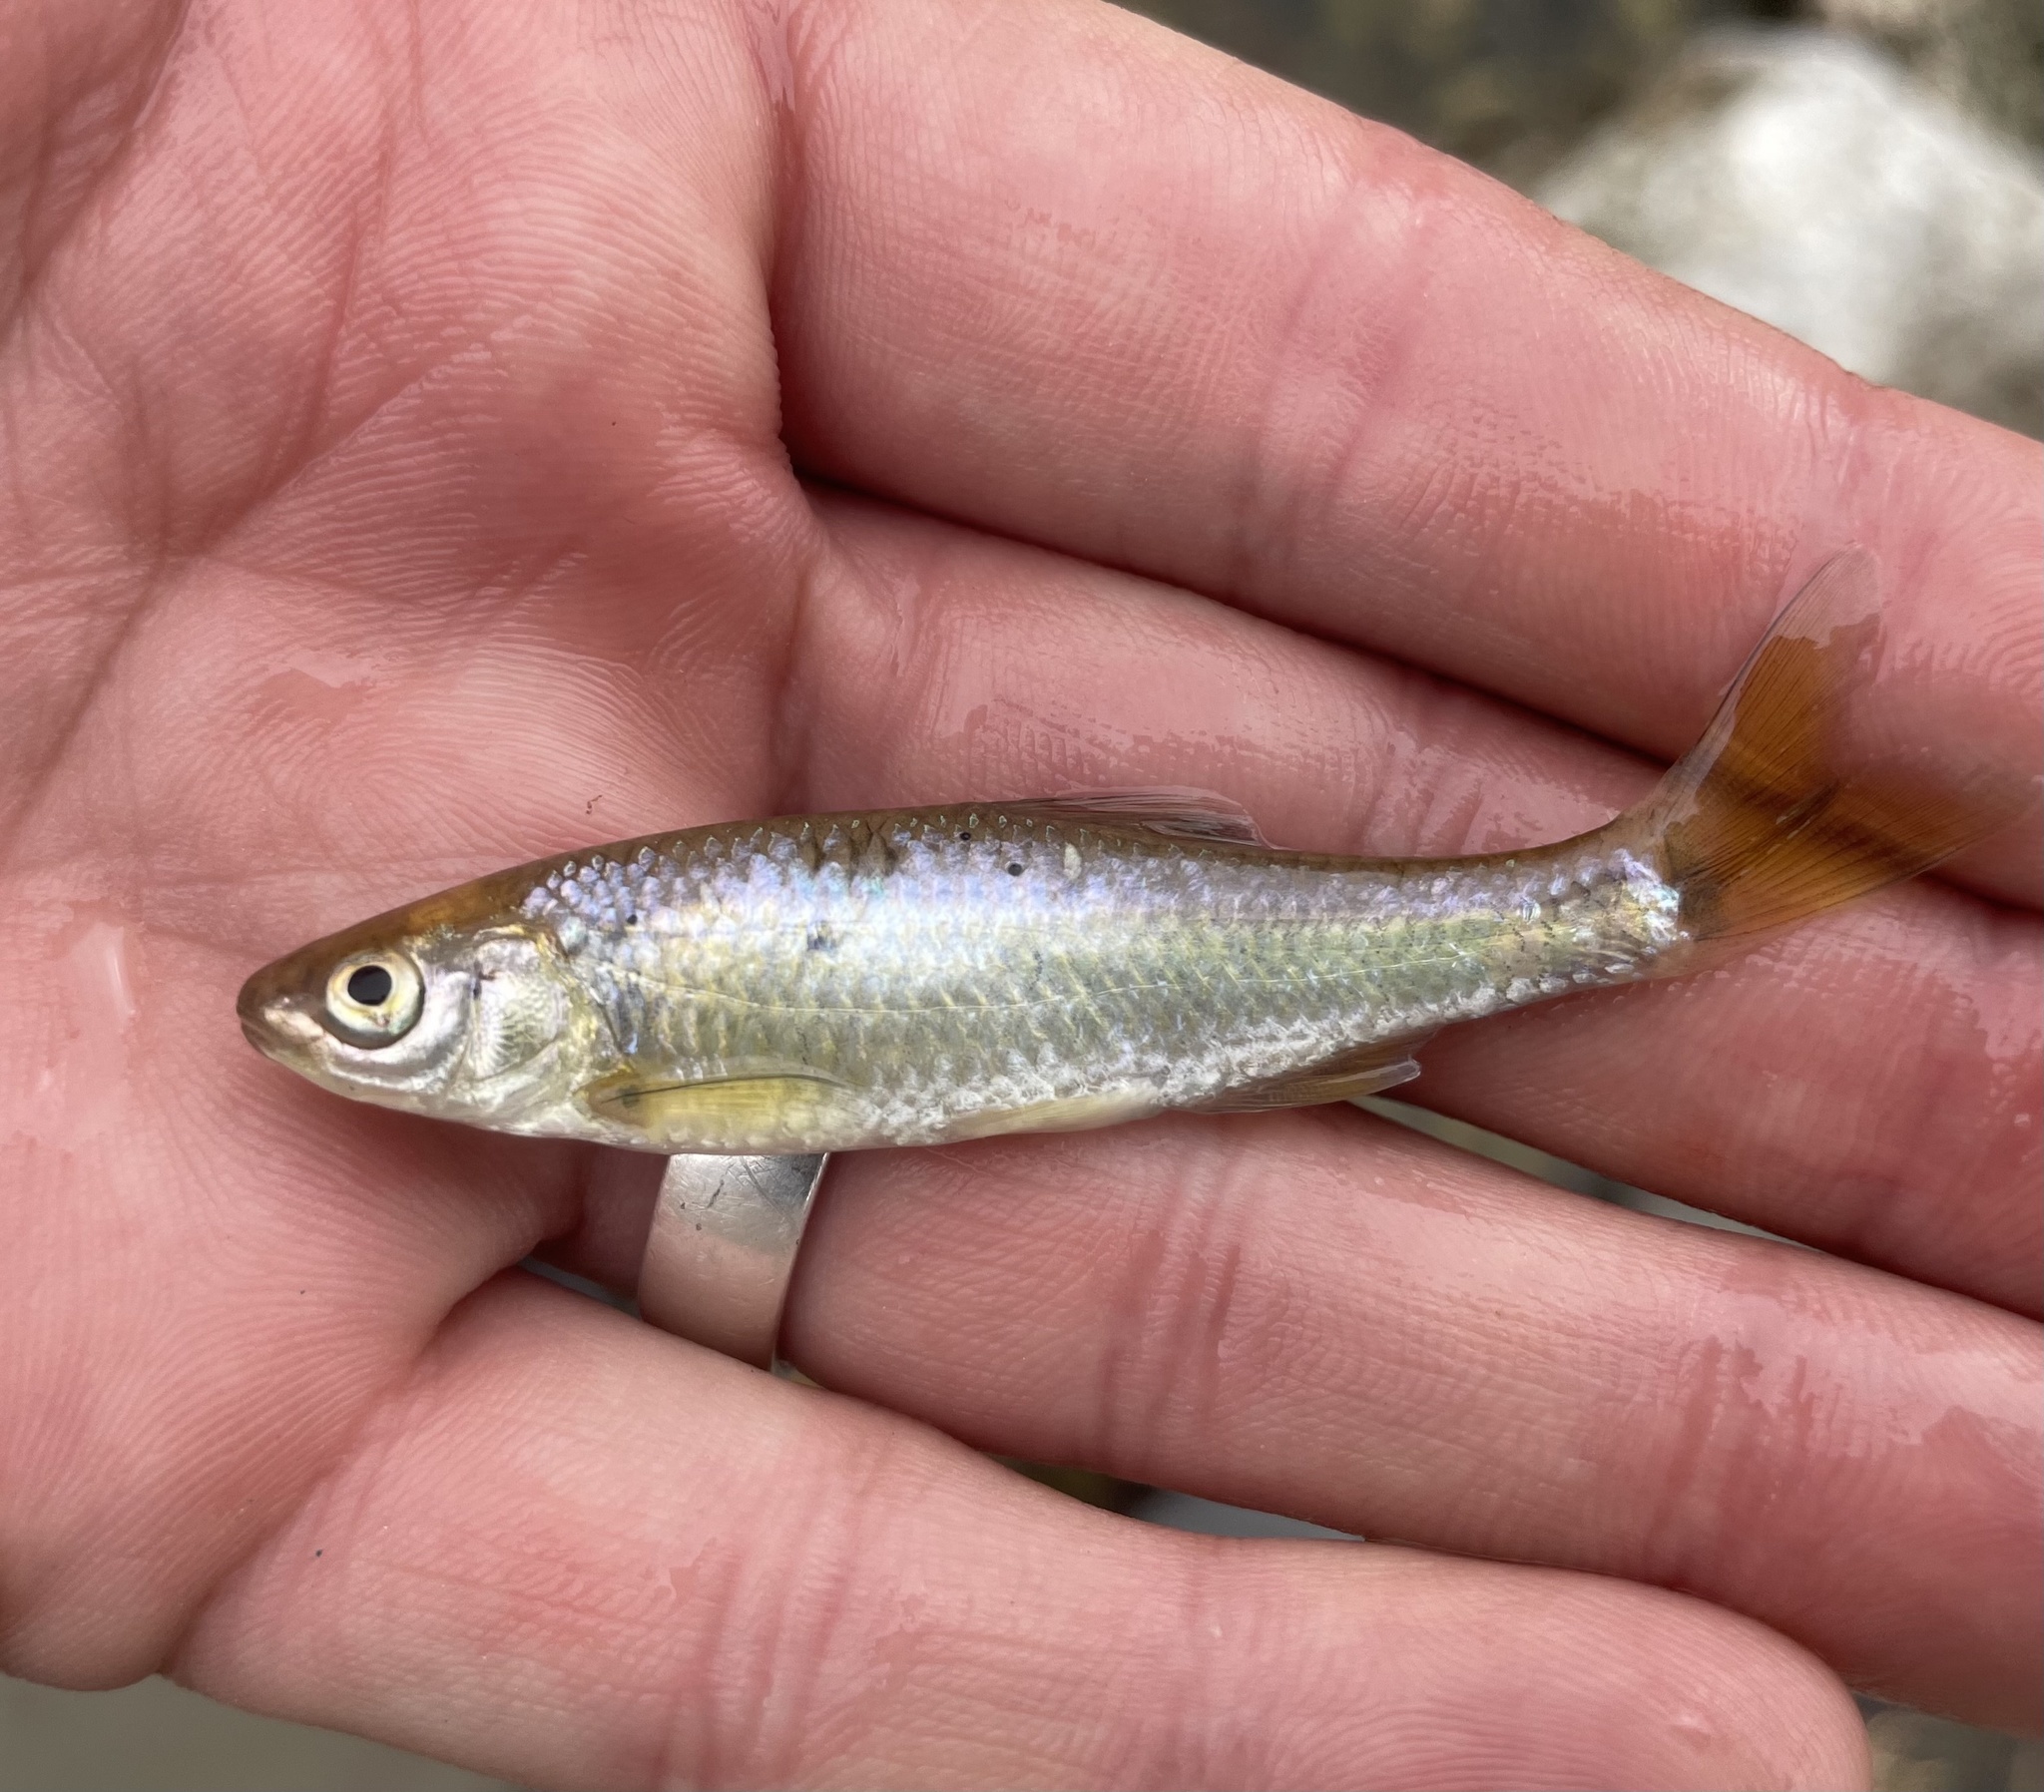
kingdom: Animalia
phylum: Chordata
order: Cypriniformes
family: Cyprinidae
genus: Cyprinella
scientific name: Cyprinella lutrensis
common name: Red shiner
